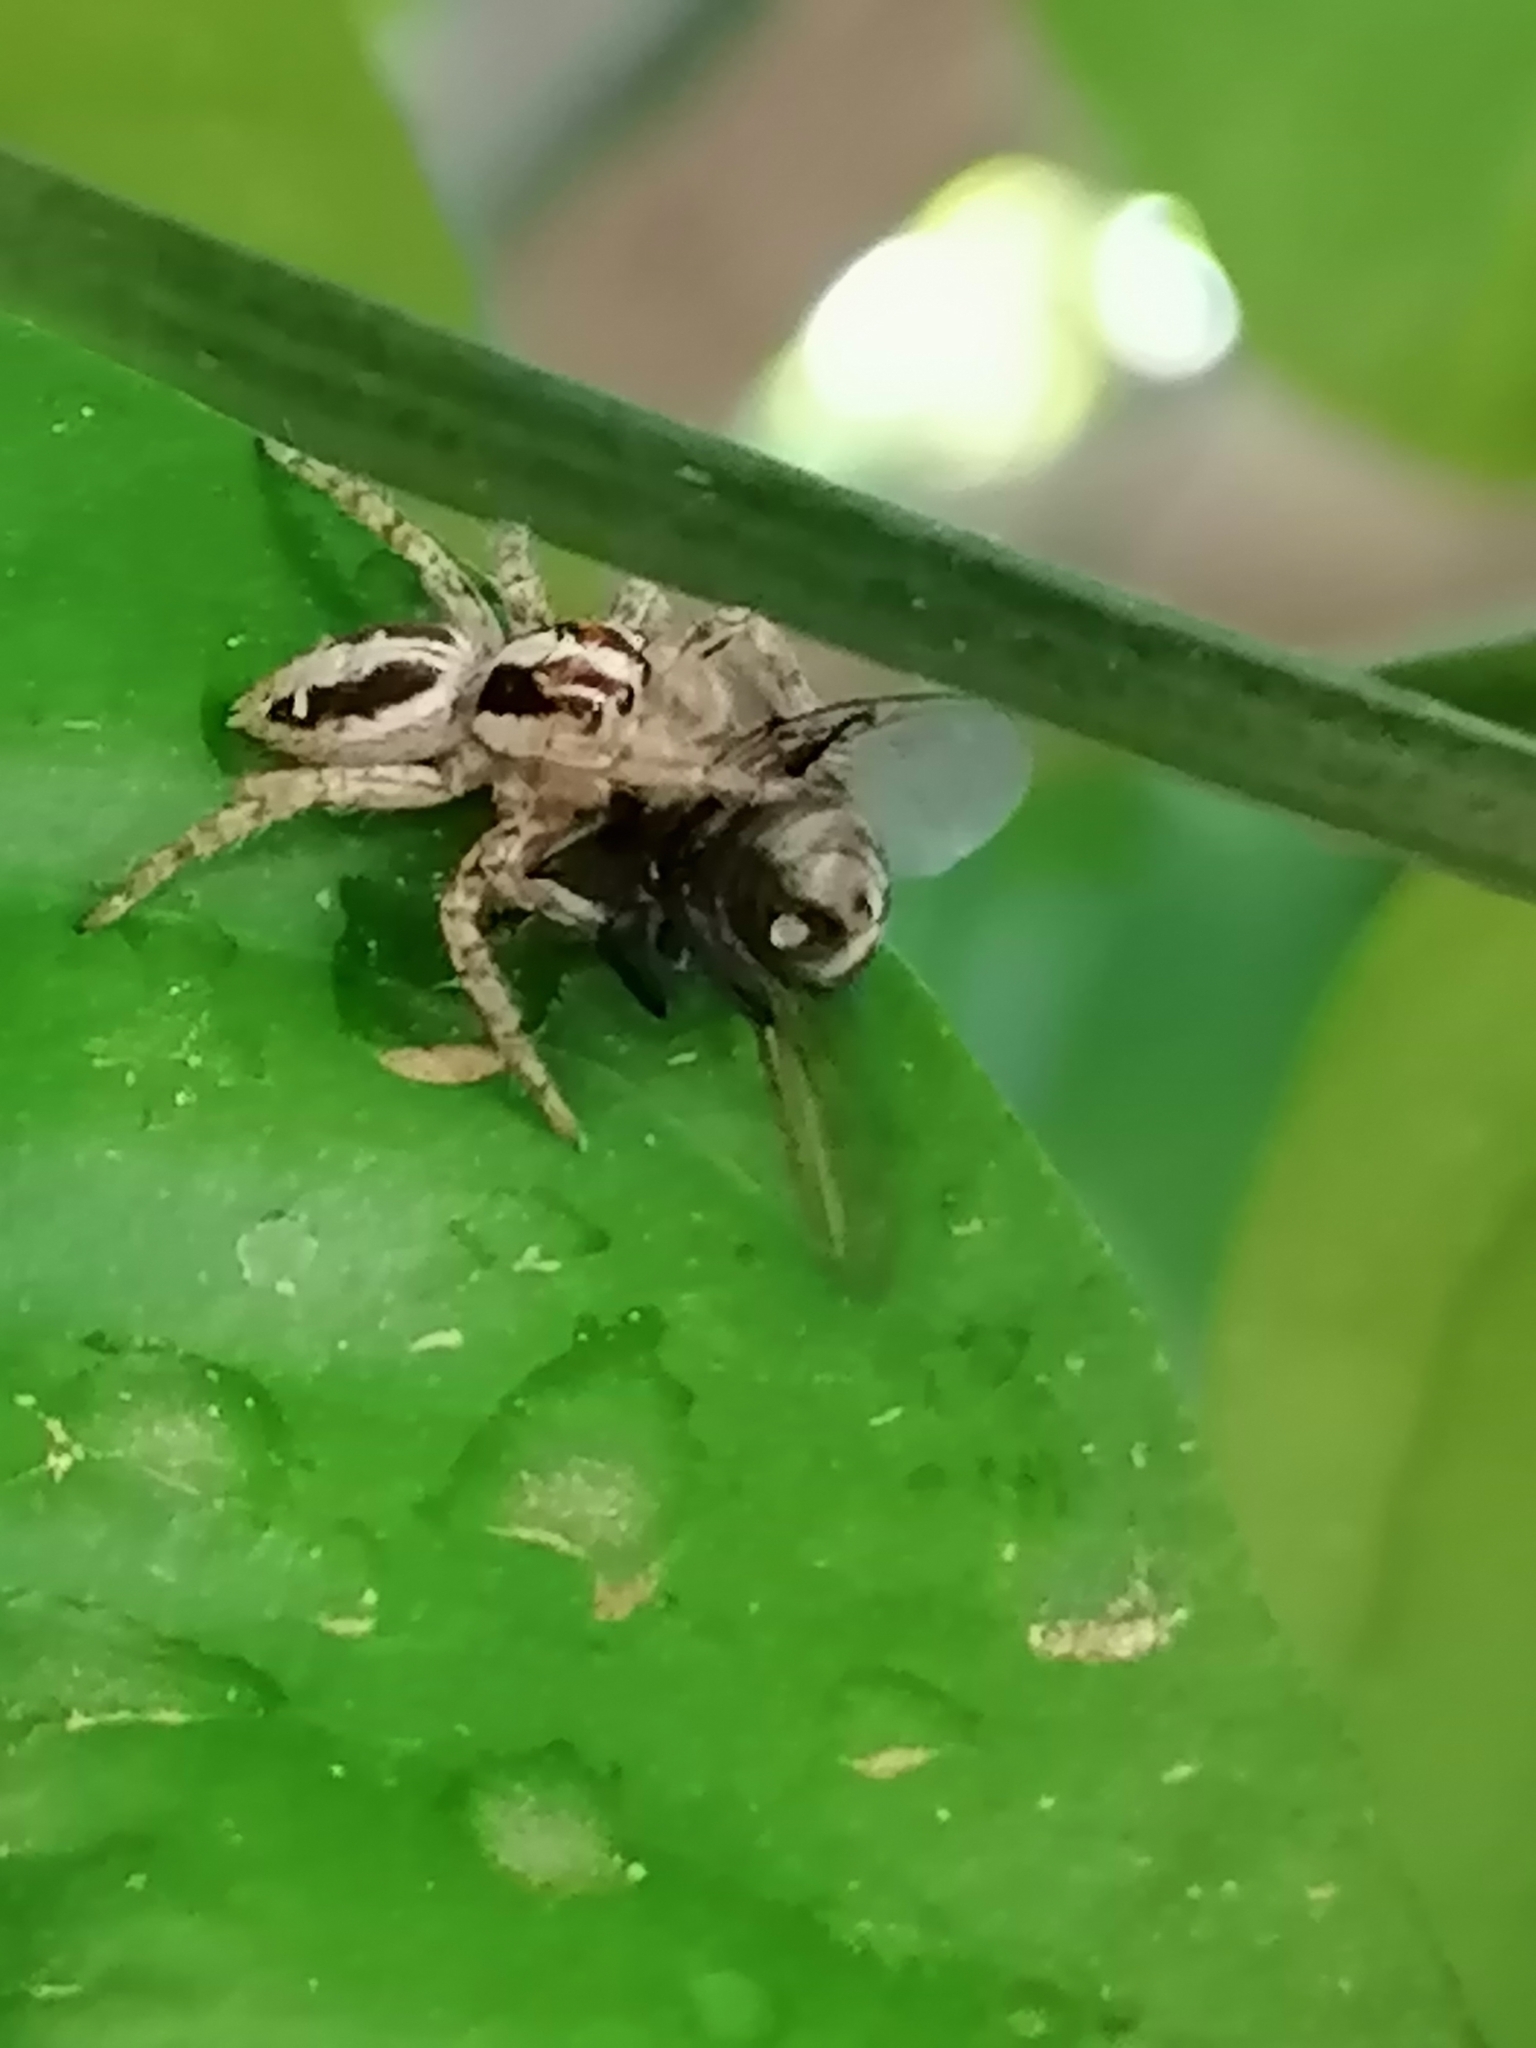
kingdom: Animalia
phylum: Arthropoda
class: Arachnida
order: Araneae
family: Salticidae
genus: Plexippus
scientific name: Plexippus paykulli
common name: Pantropical jumper
